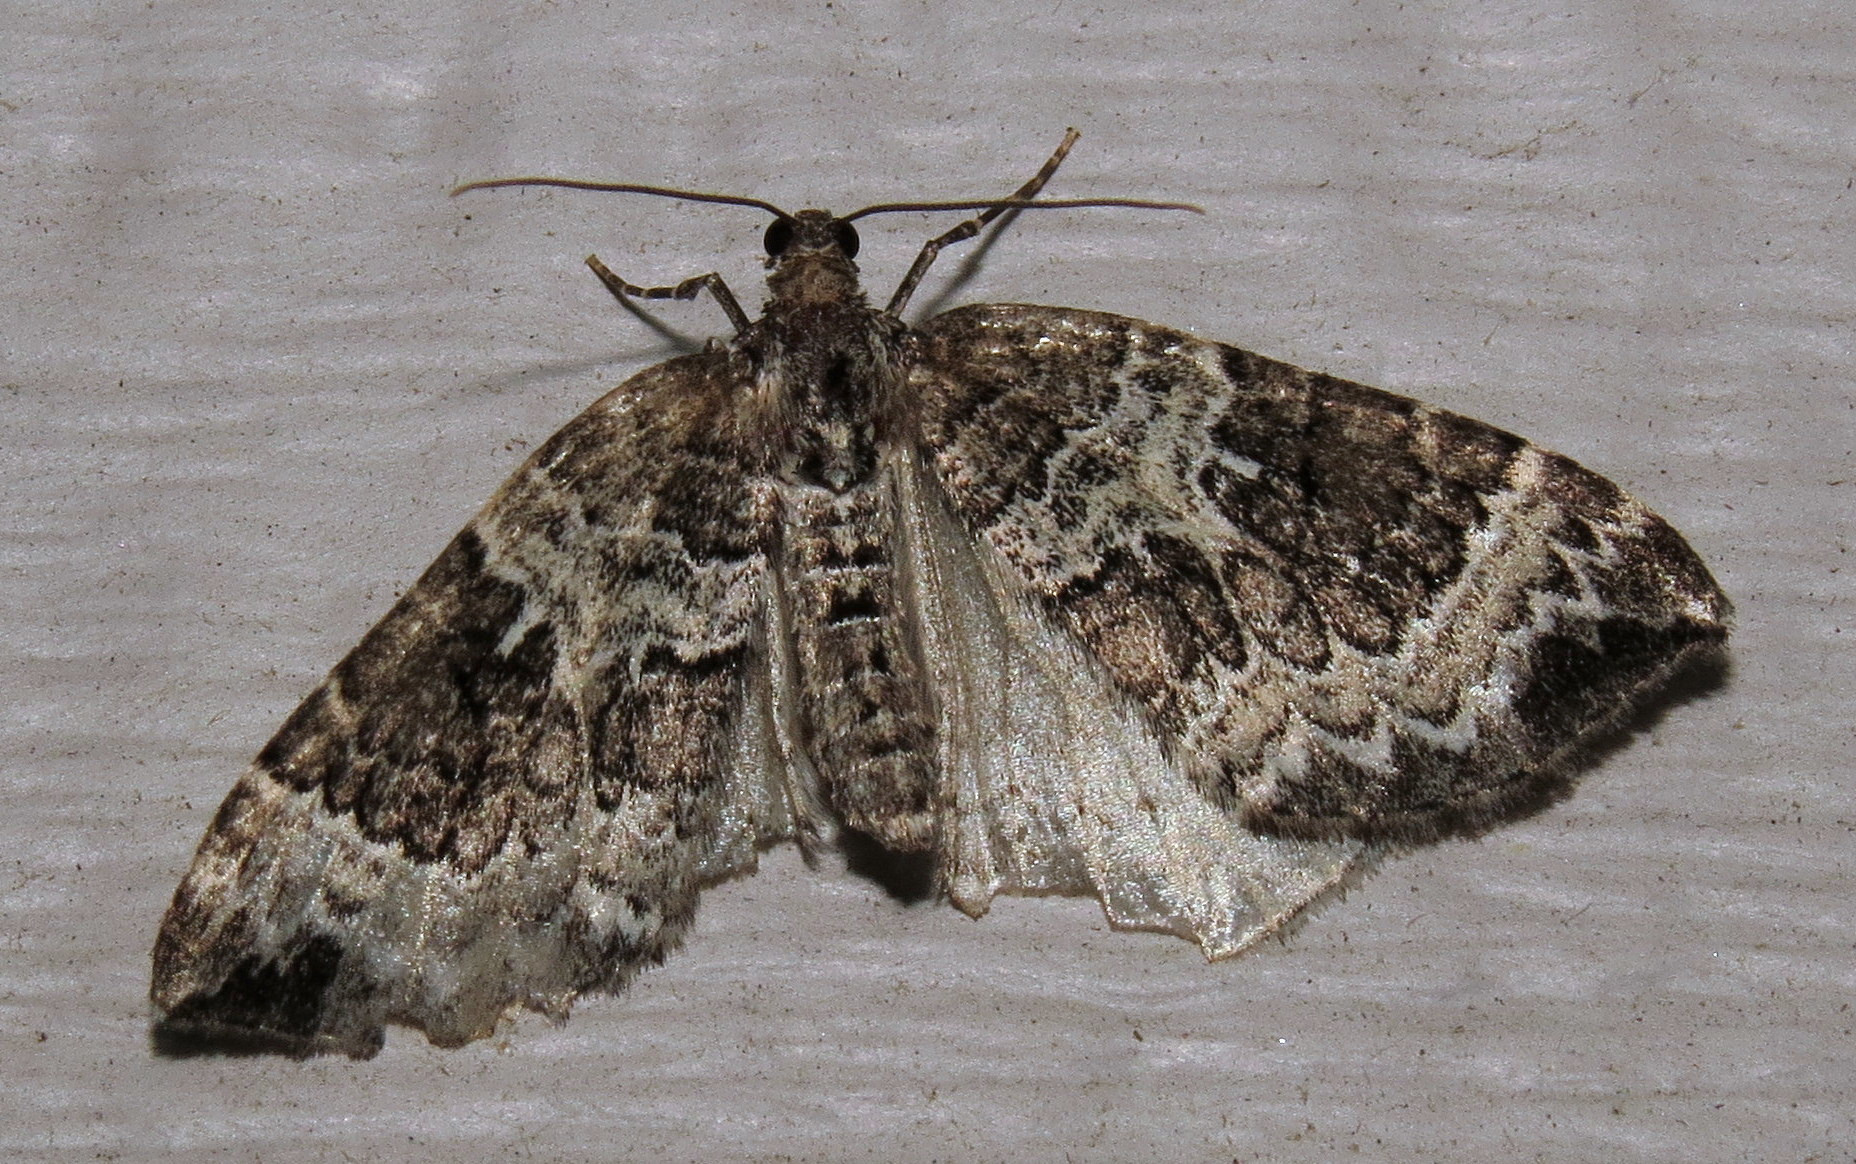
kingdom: Animalia
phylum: Arthropoda
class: Insecta
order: Lepidoptera
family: Geometridae
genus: Eulithis
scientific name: Eulithis explanata
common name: White eulithis
